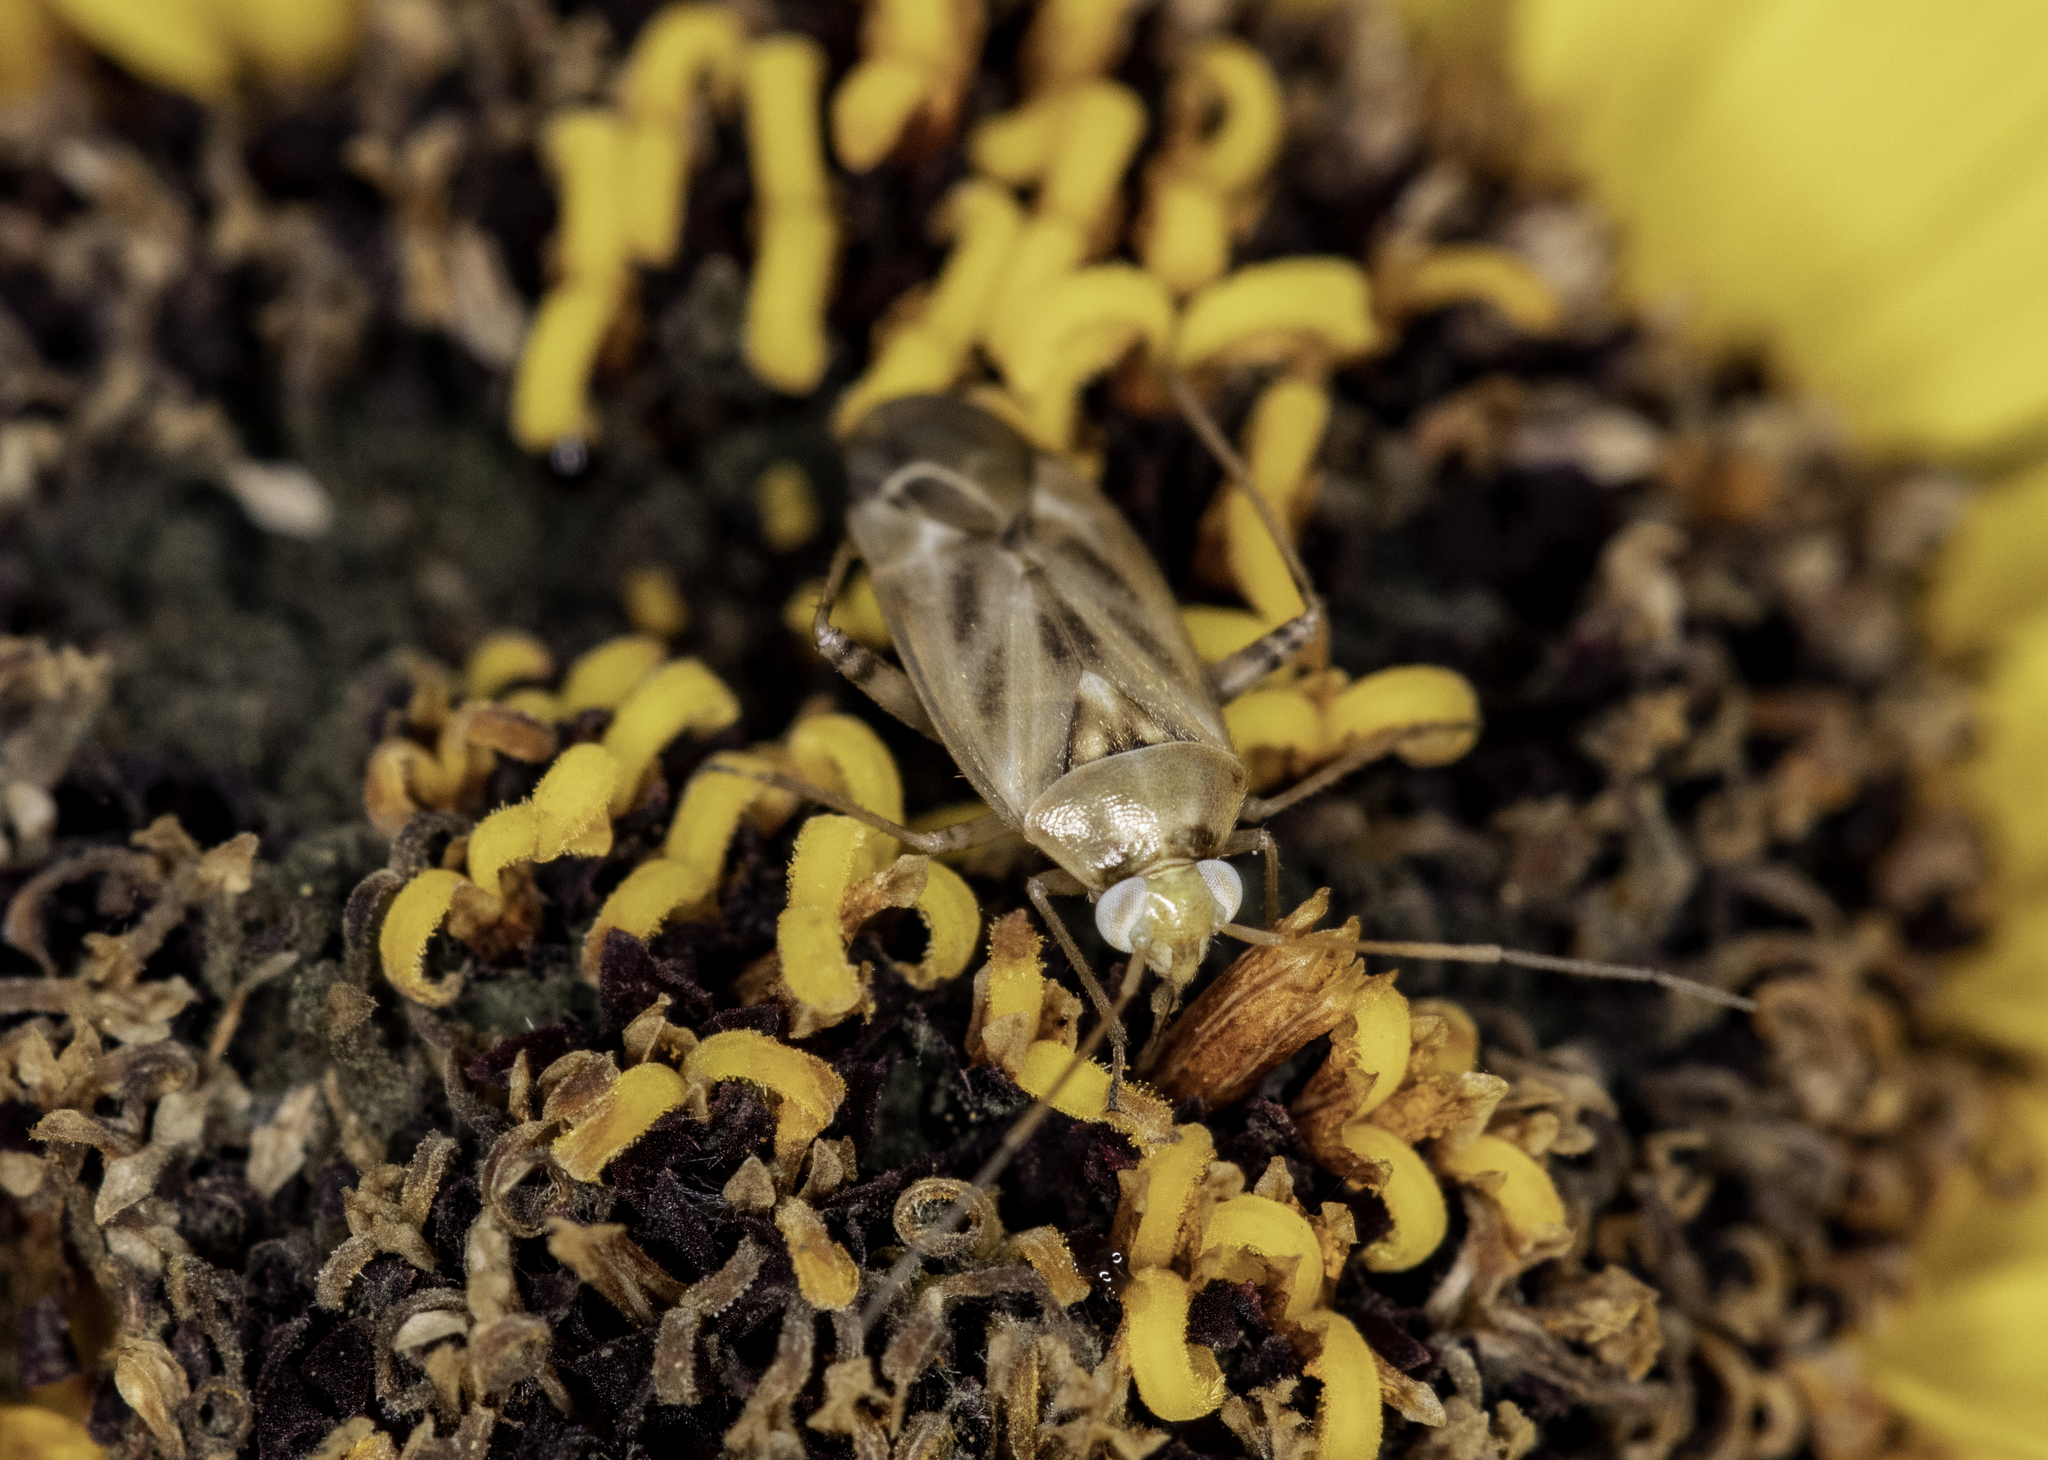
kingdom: Animalia
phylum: Arthropoda
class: Insecta
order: Hemiptera
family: Miridae
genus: Taylorilygus
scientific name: Taylorilygus apicalis
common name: Plant bug
